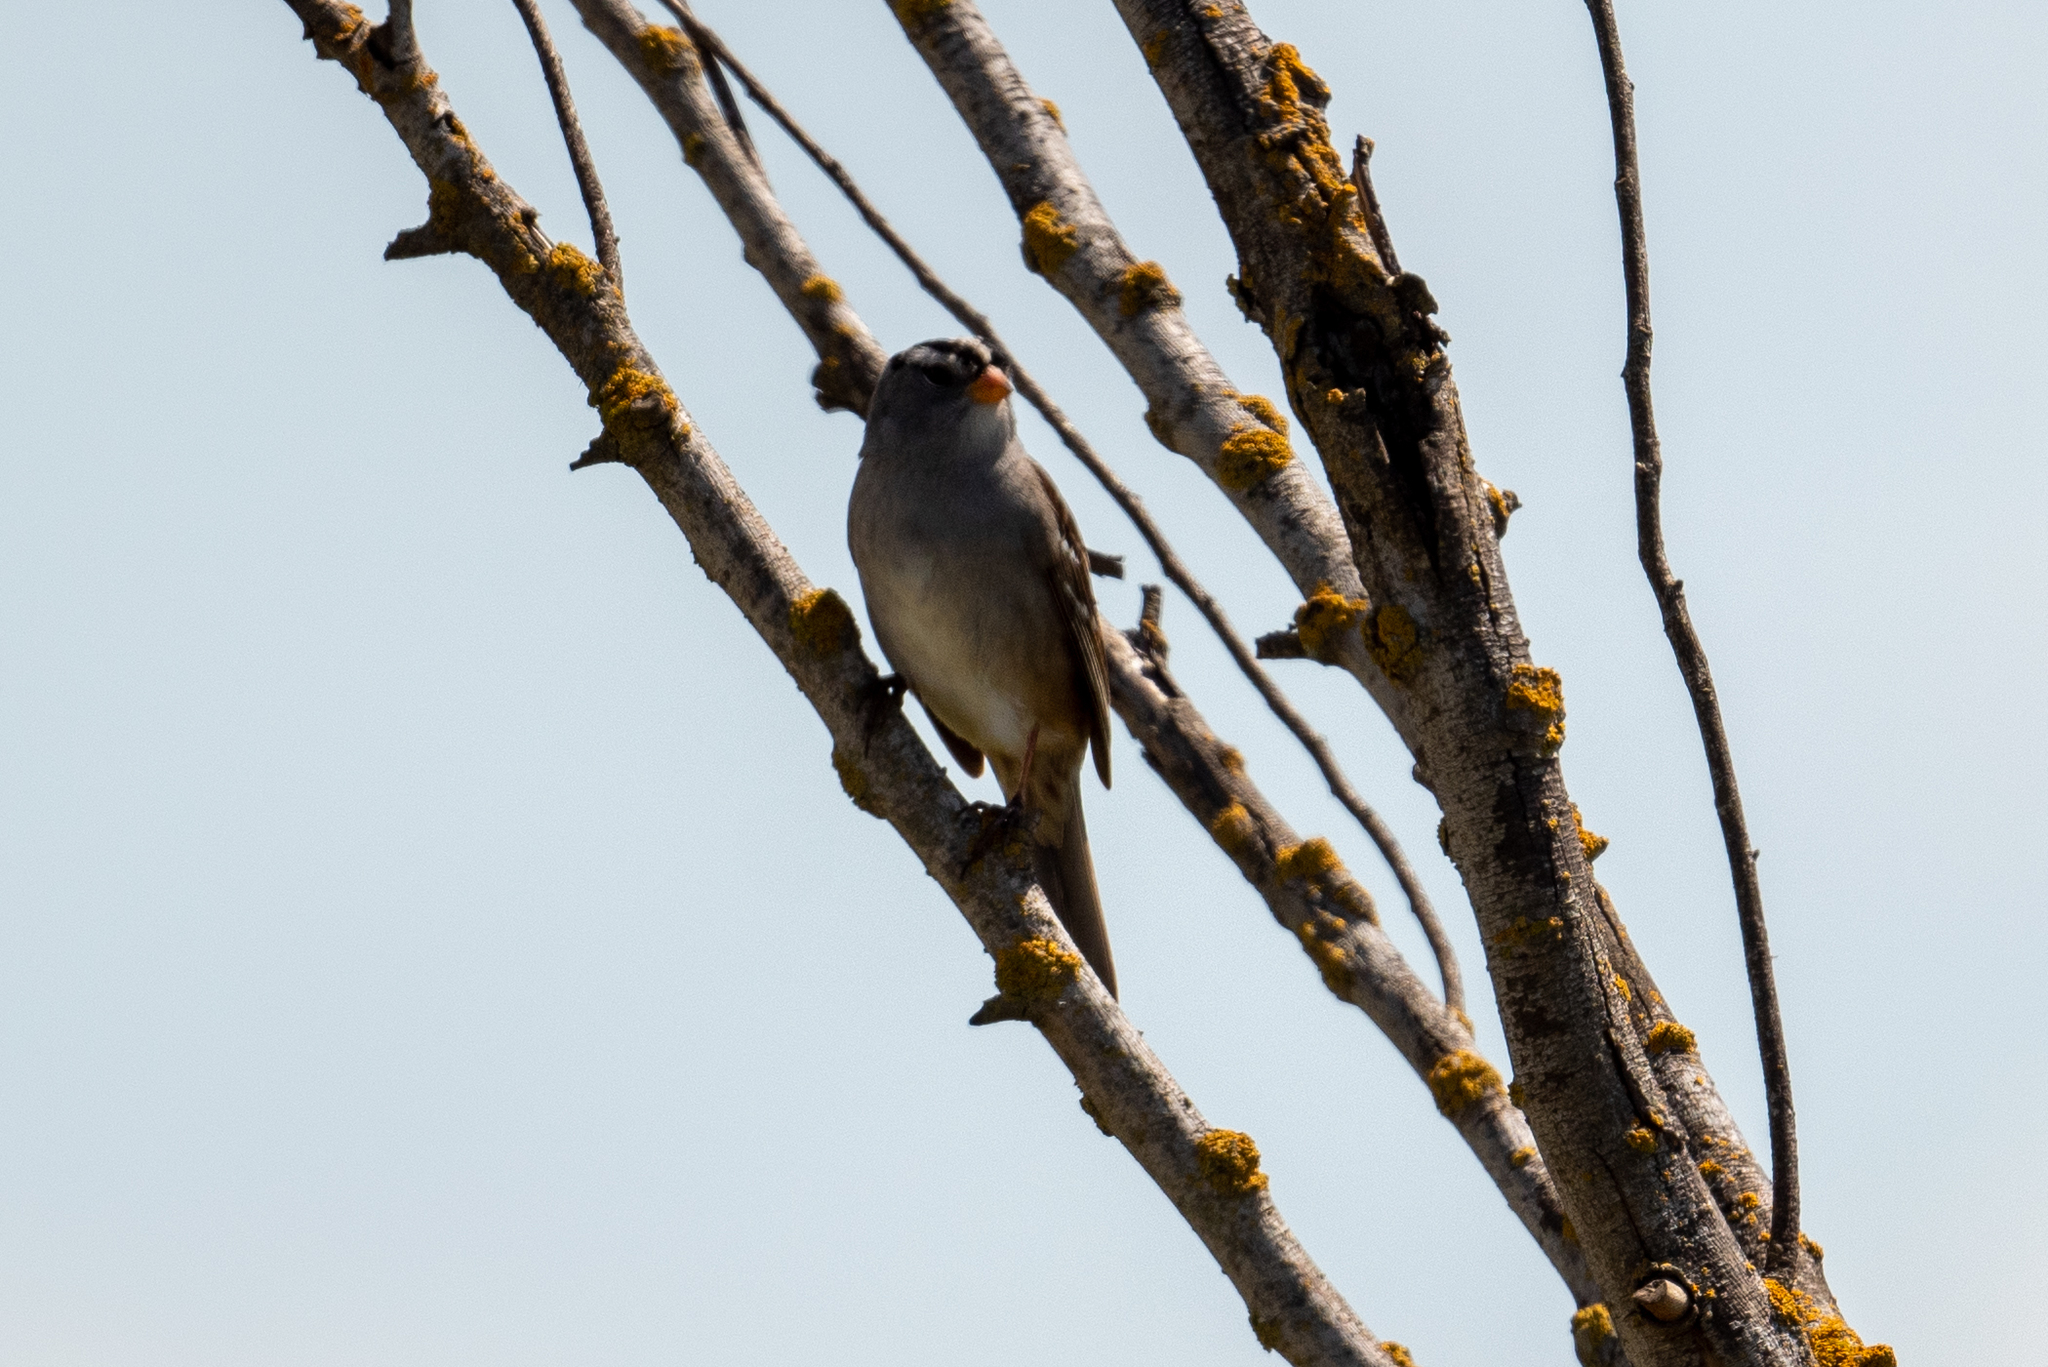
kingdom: Animalia
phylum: Chordata
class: Aves
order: Passeriformes
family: Passerellidae
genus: Zonotrichia
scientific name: Zonotrichia leucophrys
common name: White-crowned sparrow
